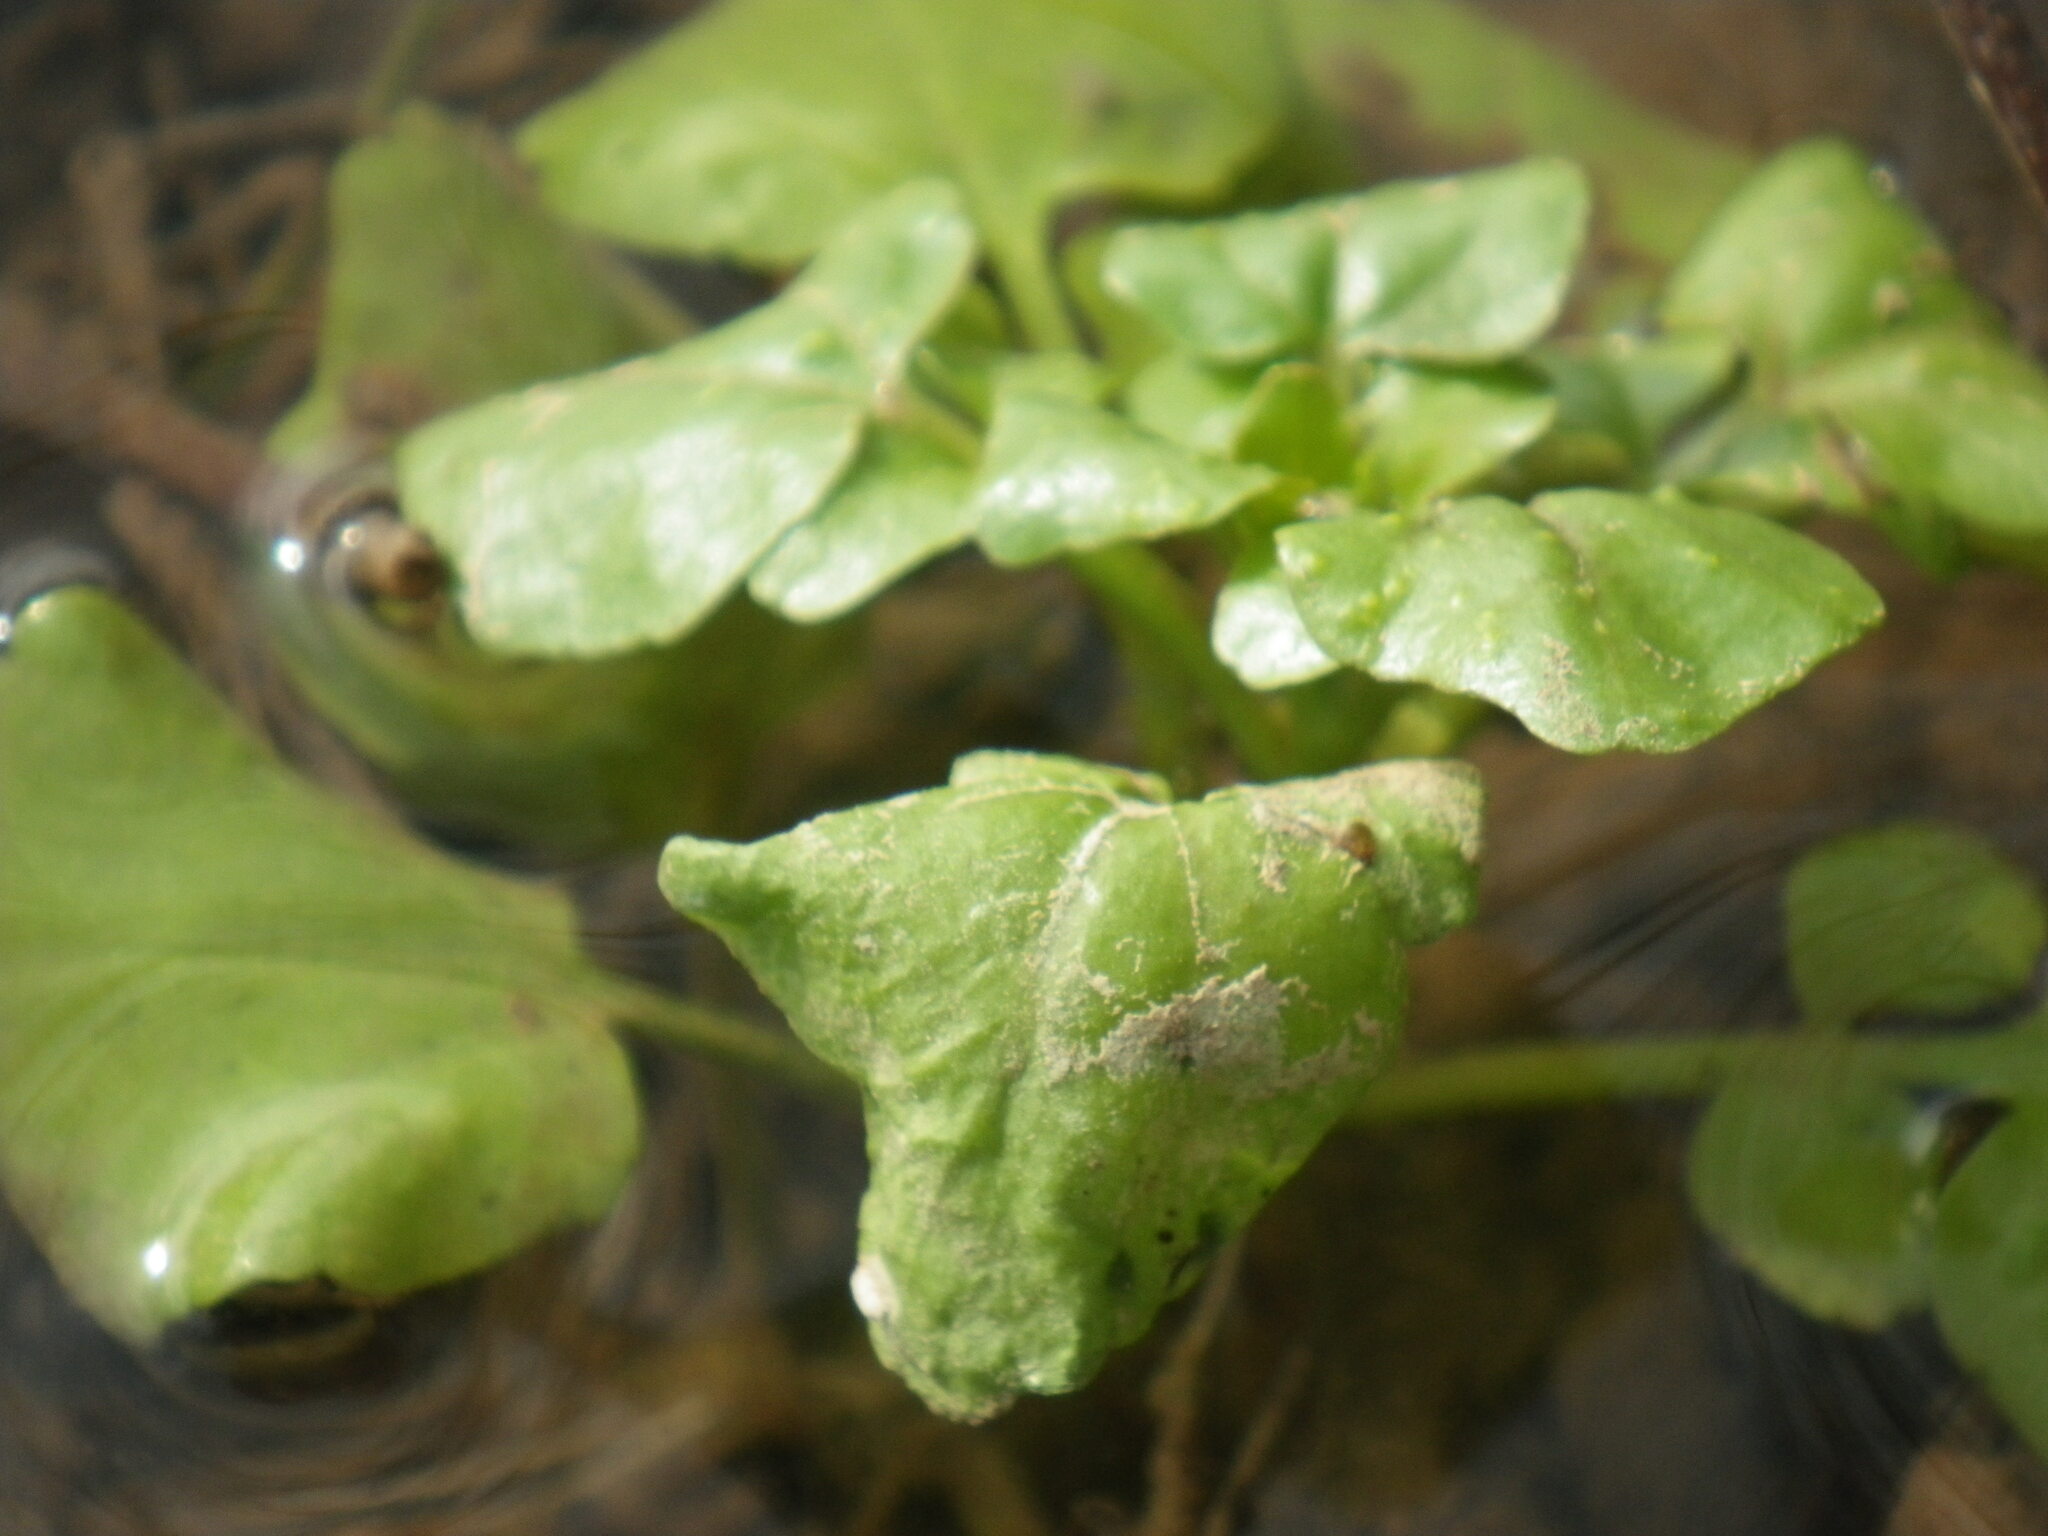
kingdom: Plantae
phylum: Tracheophyta
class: Magnoliopsida
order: Brassicales
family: Brassicaceae
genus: Nasturtium
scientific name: Nasturtium officinale
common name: Watercress
